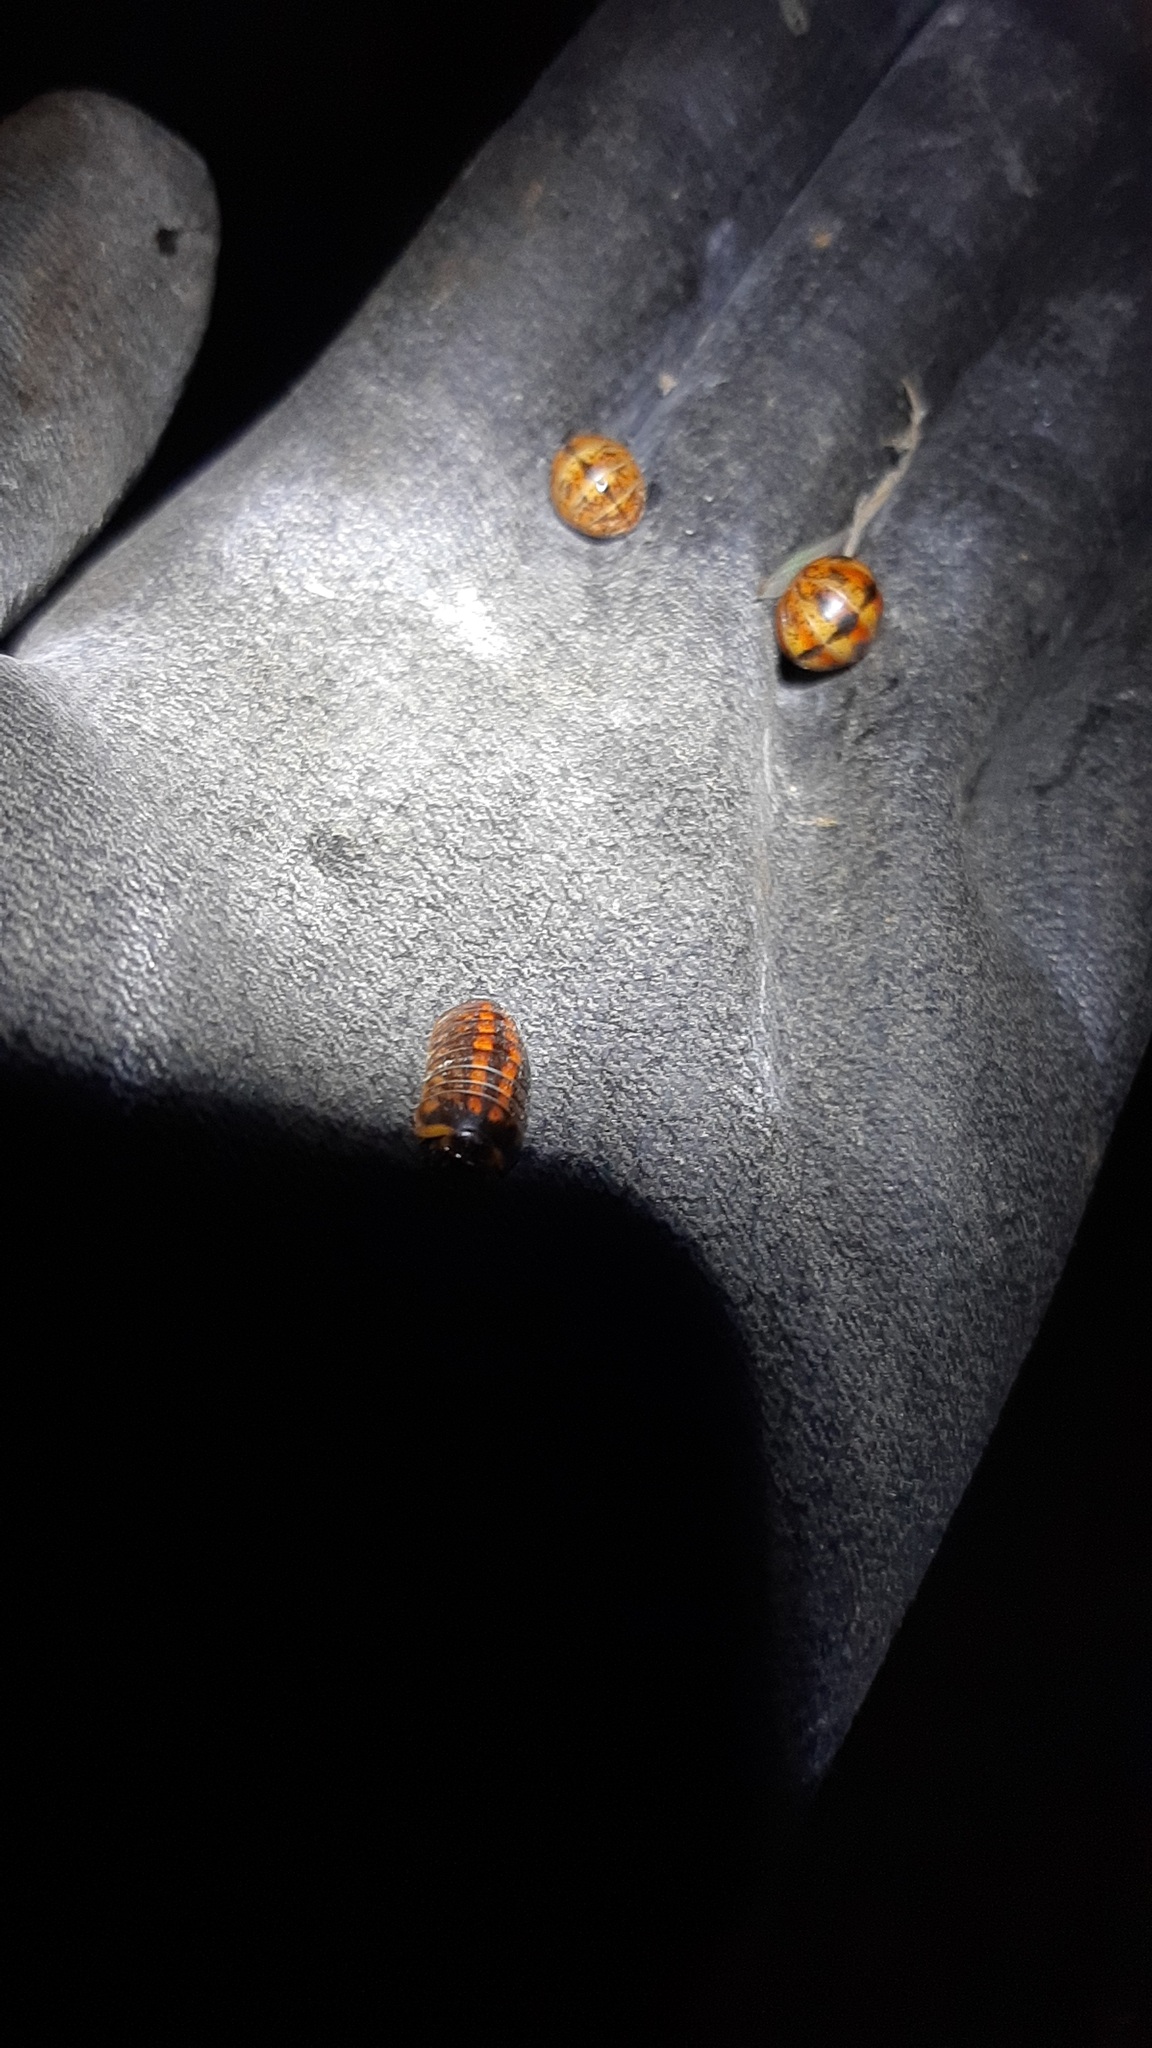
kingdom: Animalia
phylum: Arthropoda
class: Diplopoda
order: Glomerida
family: Glomeridae
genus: Glomeris
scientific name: Glomeris klugii
